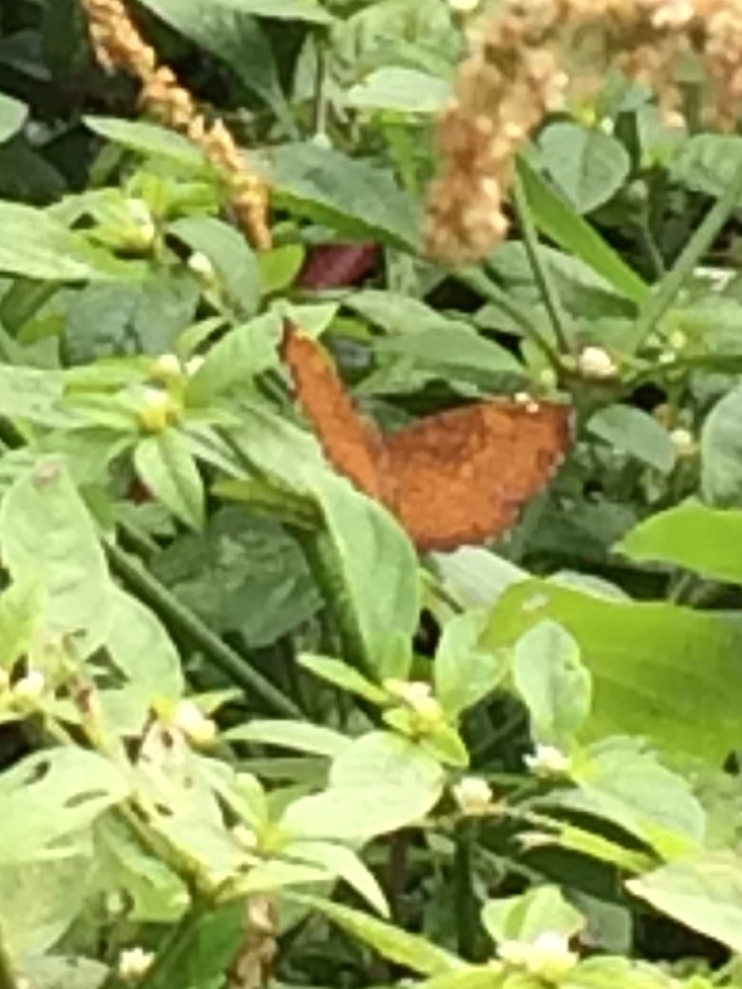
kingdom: Animalia
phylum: Arthropoda
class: Insecta
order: Lepidoptera
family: Nymphalidae
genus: Ariadne
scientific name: Ariadne merione
